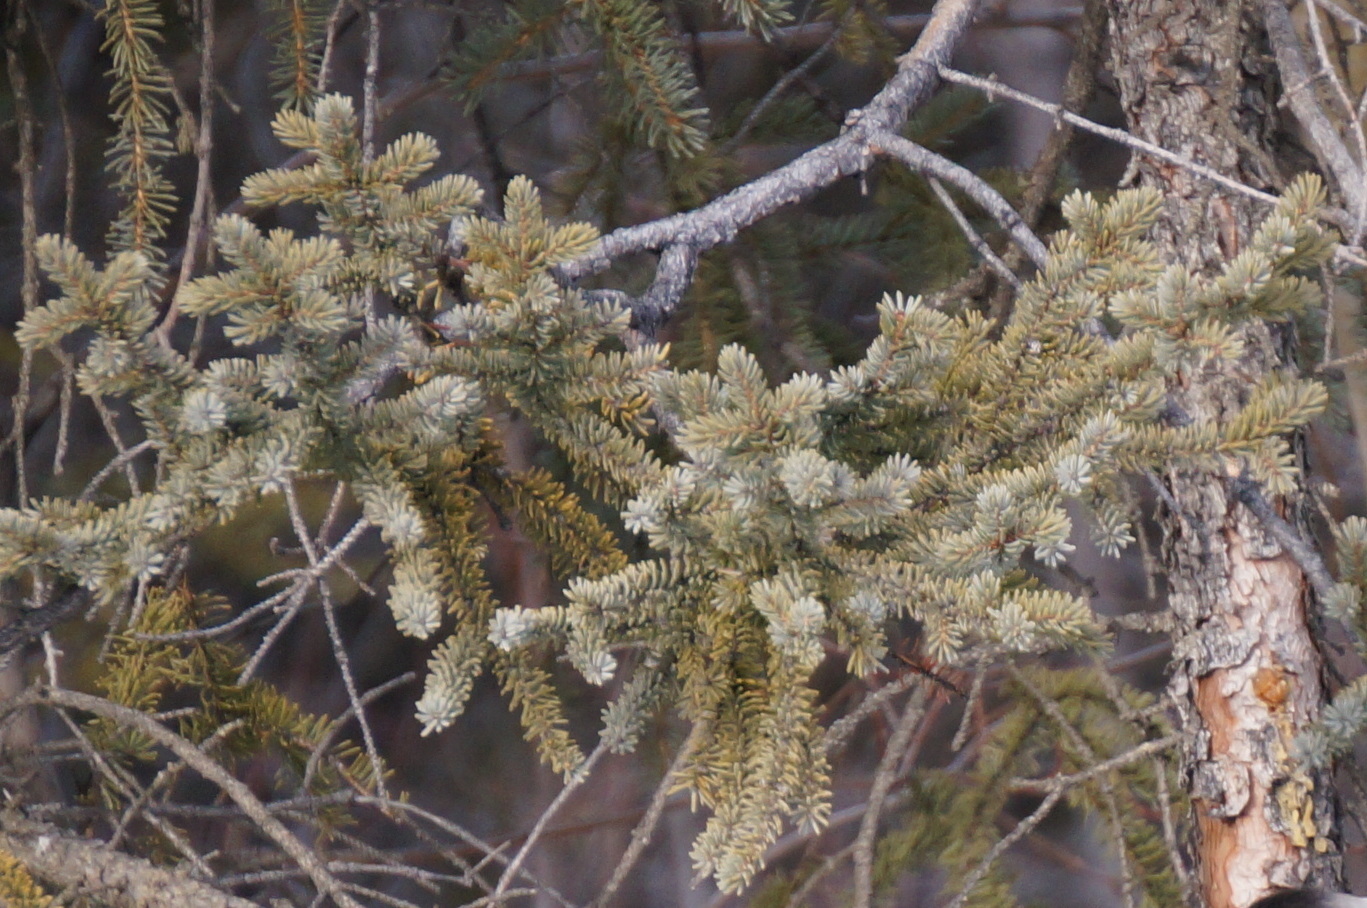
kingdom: Plantae
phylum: Tracheophyta
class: Pinopsida
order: Pinales
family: Pinaceae
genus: Picea
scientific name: Picea glauca
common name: White spruce
